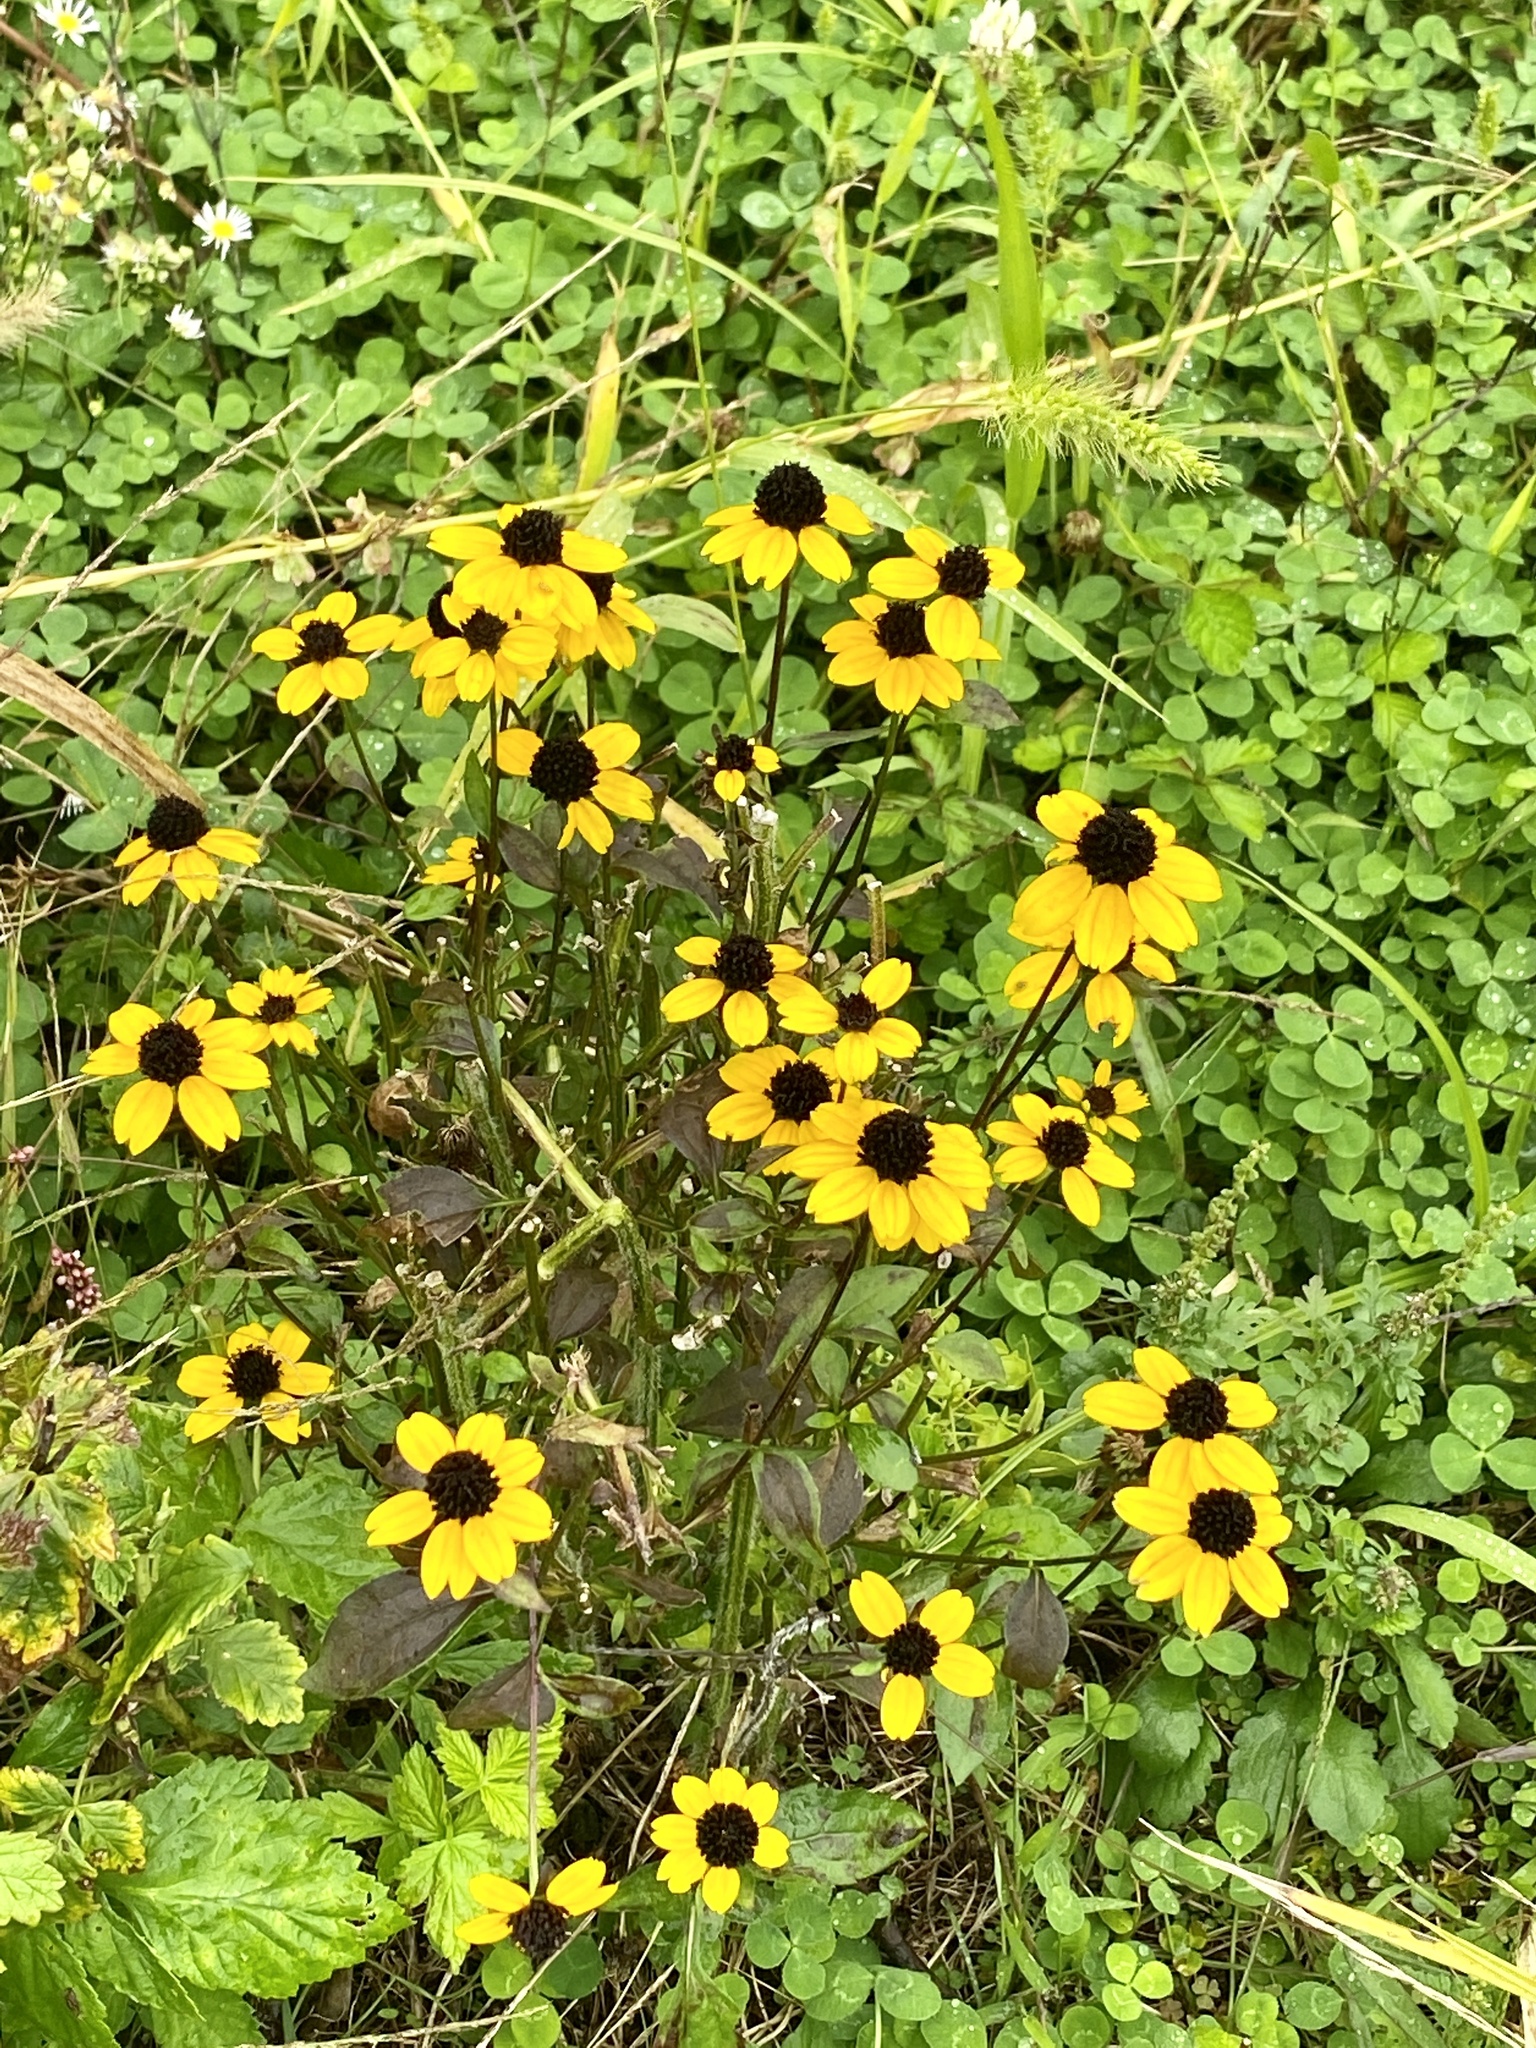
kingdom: Plantae
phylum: Tracheophyta
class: Magnoliopsida
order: Asterales
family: Asteraceae
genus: Rudbeckia
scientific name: Rudbeckia triloba
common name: Thin-leaved coneflower
